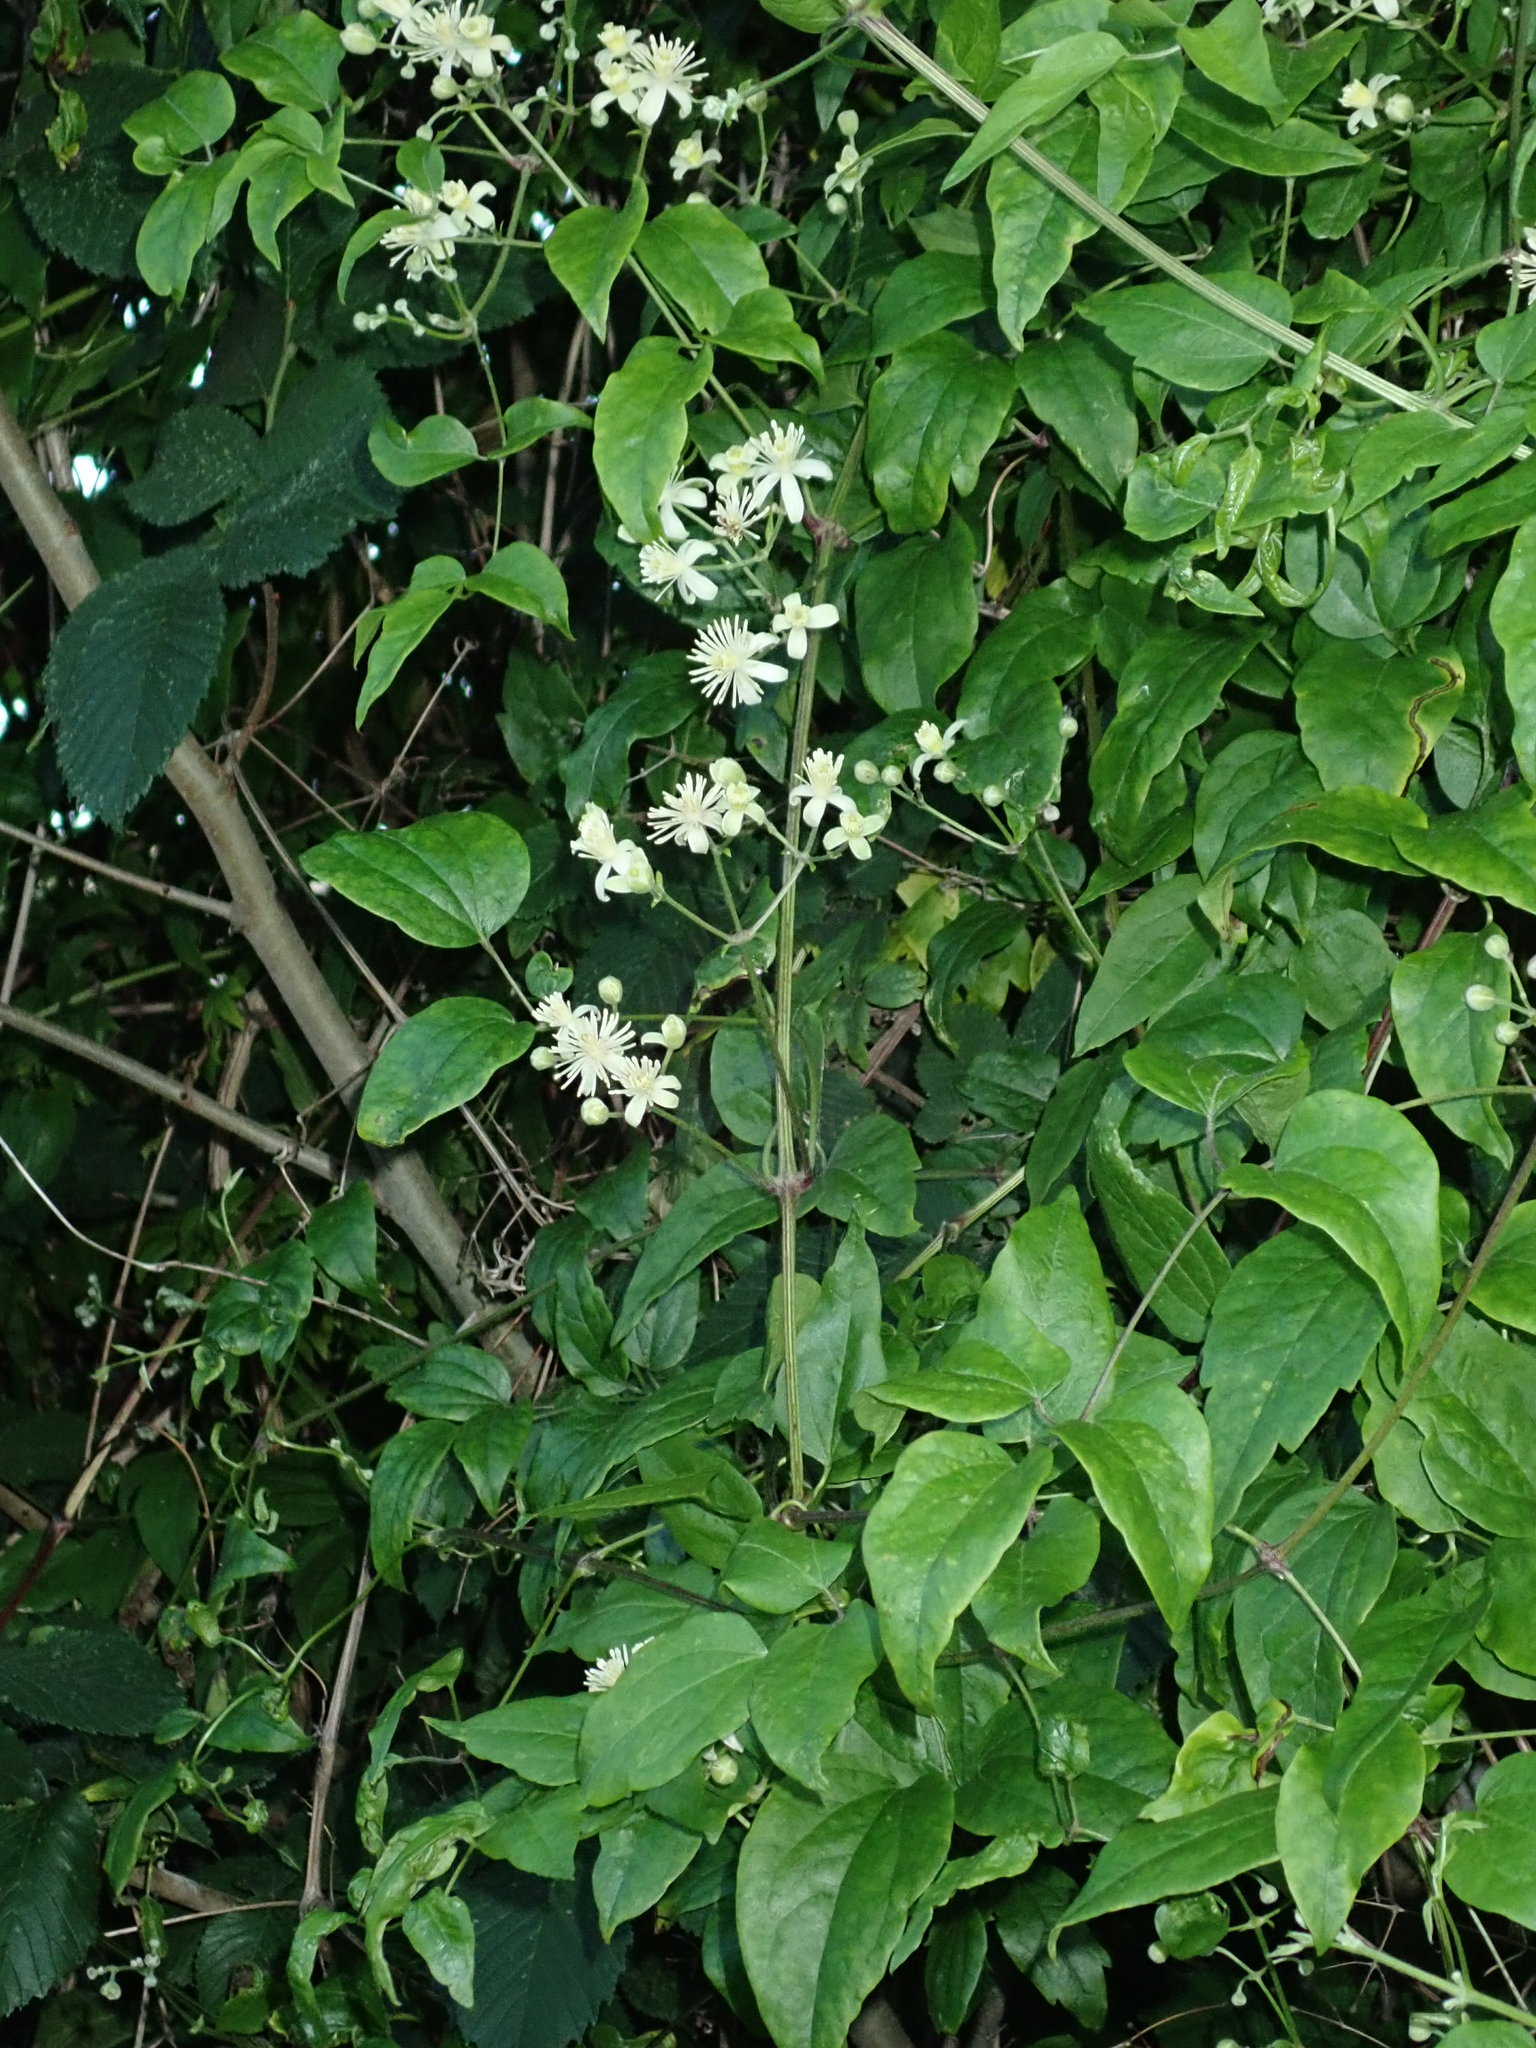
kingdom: Plantae
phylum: Tracheophyta
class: Magnoliopsida
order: Ranunculales
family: Ranunculaceae
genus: Clematis
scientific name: Clematis vitalba
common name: Evergreen clematis
